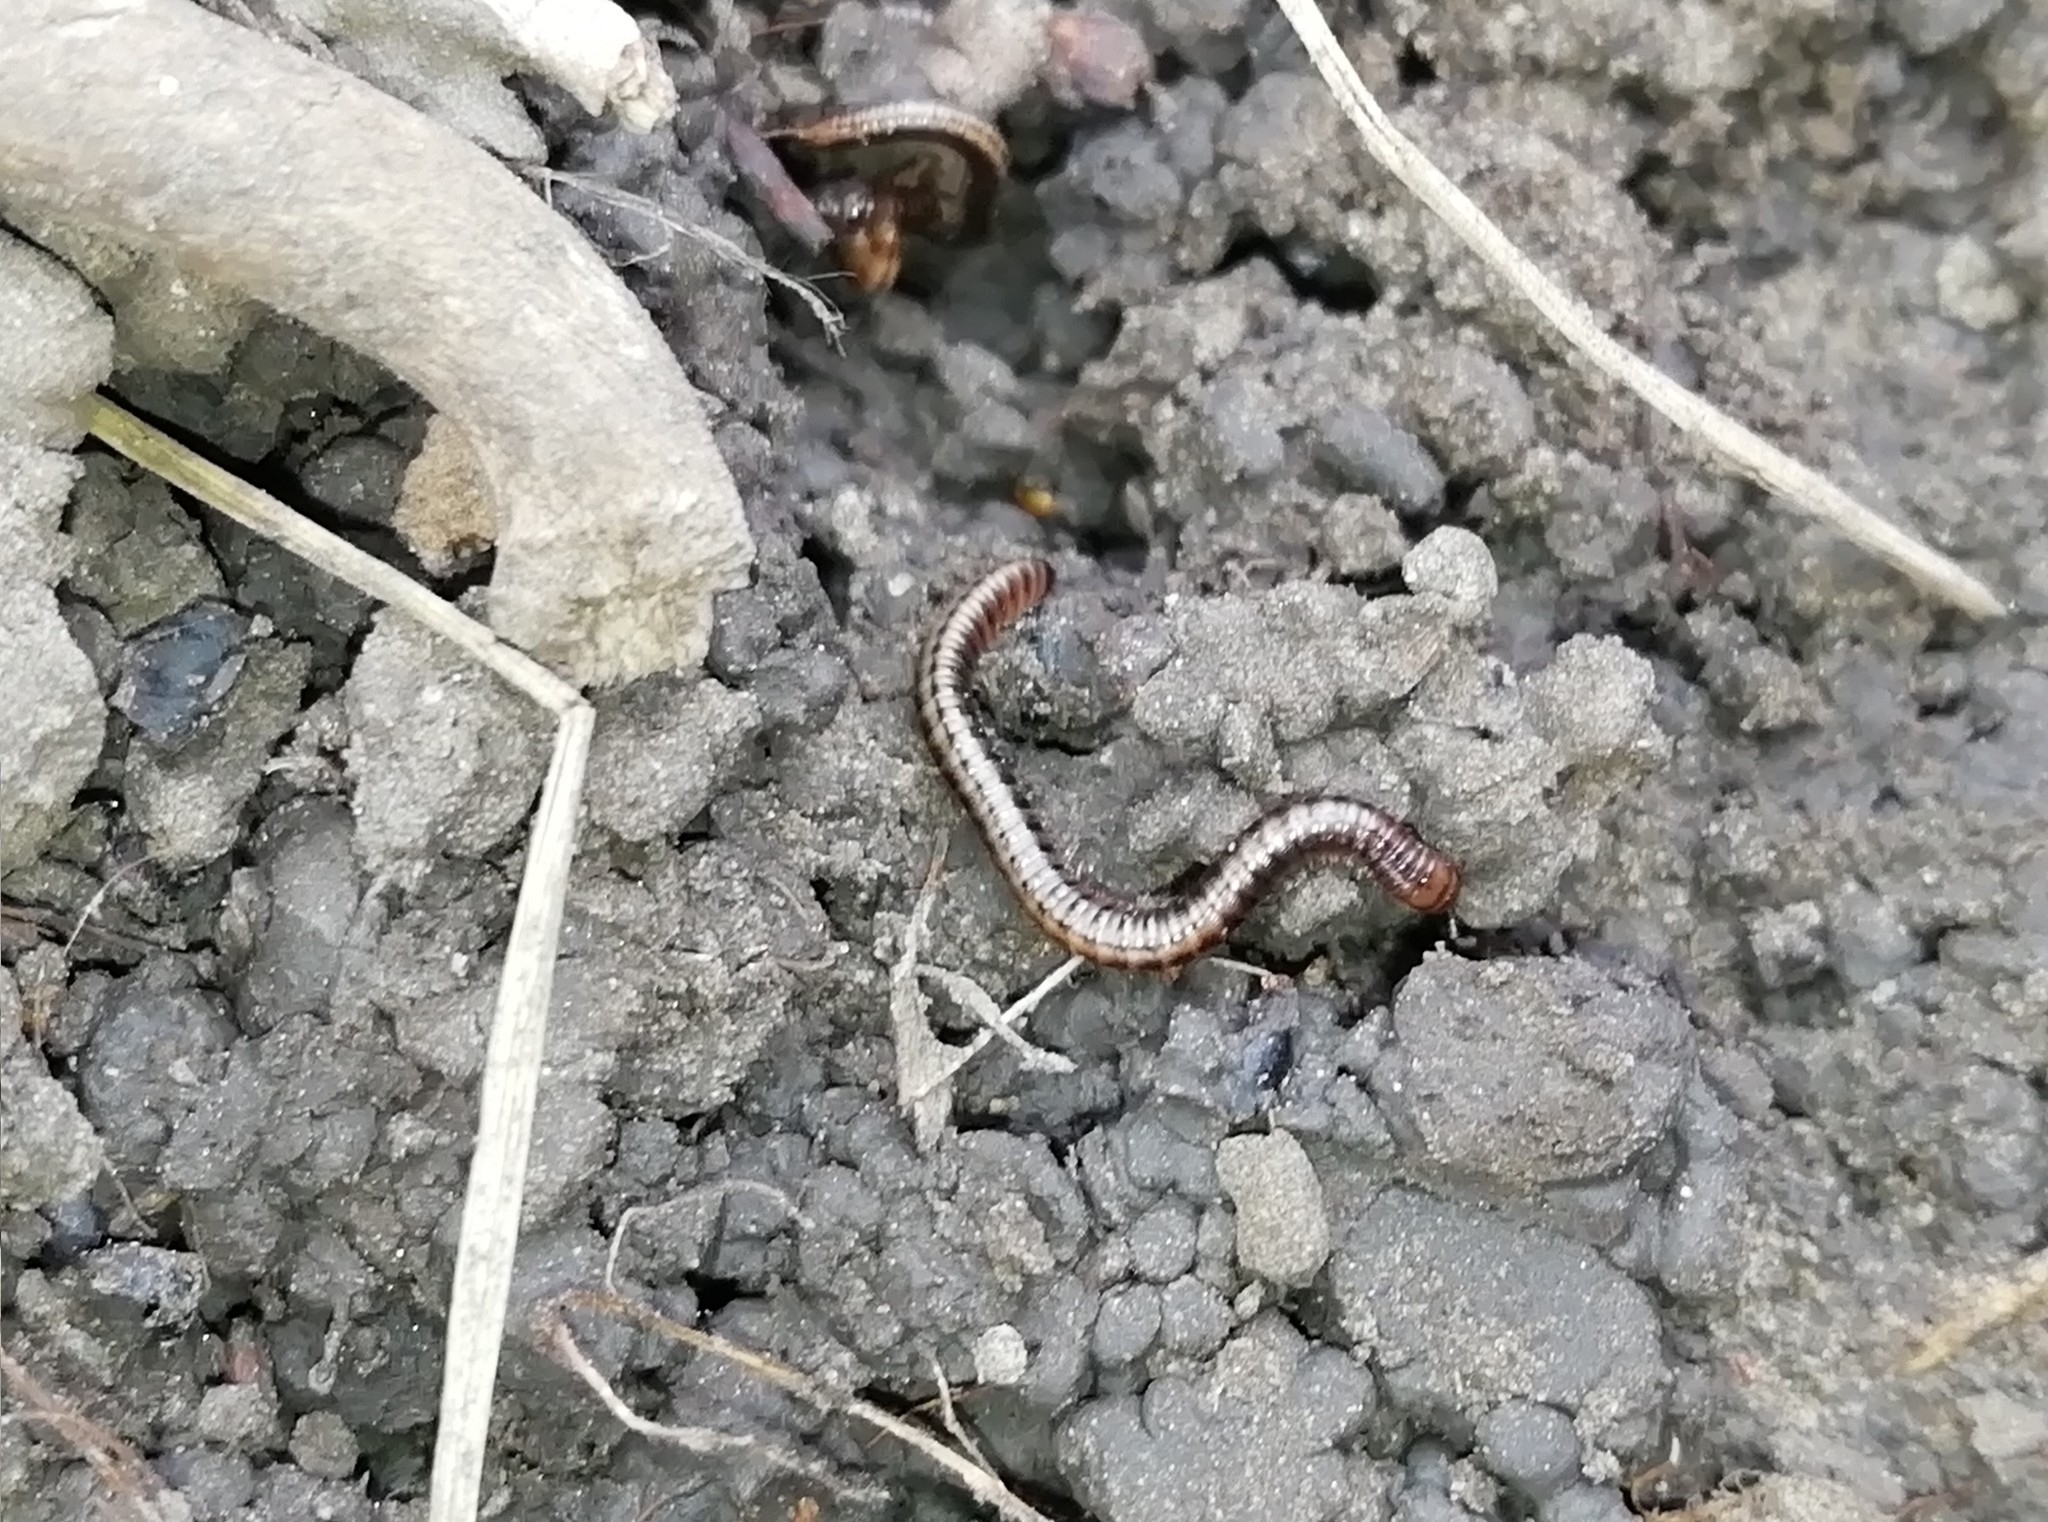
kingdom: Animalia
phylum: Arthropoda
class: Diplopoda
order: Julida
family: Julidae
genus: Brachyiulus
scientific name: Brachyiulus jawlowskii
